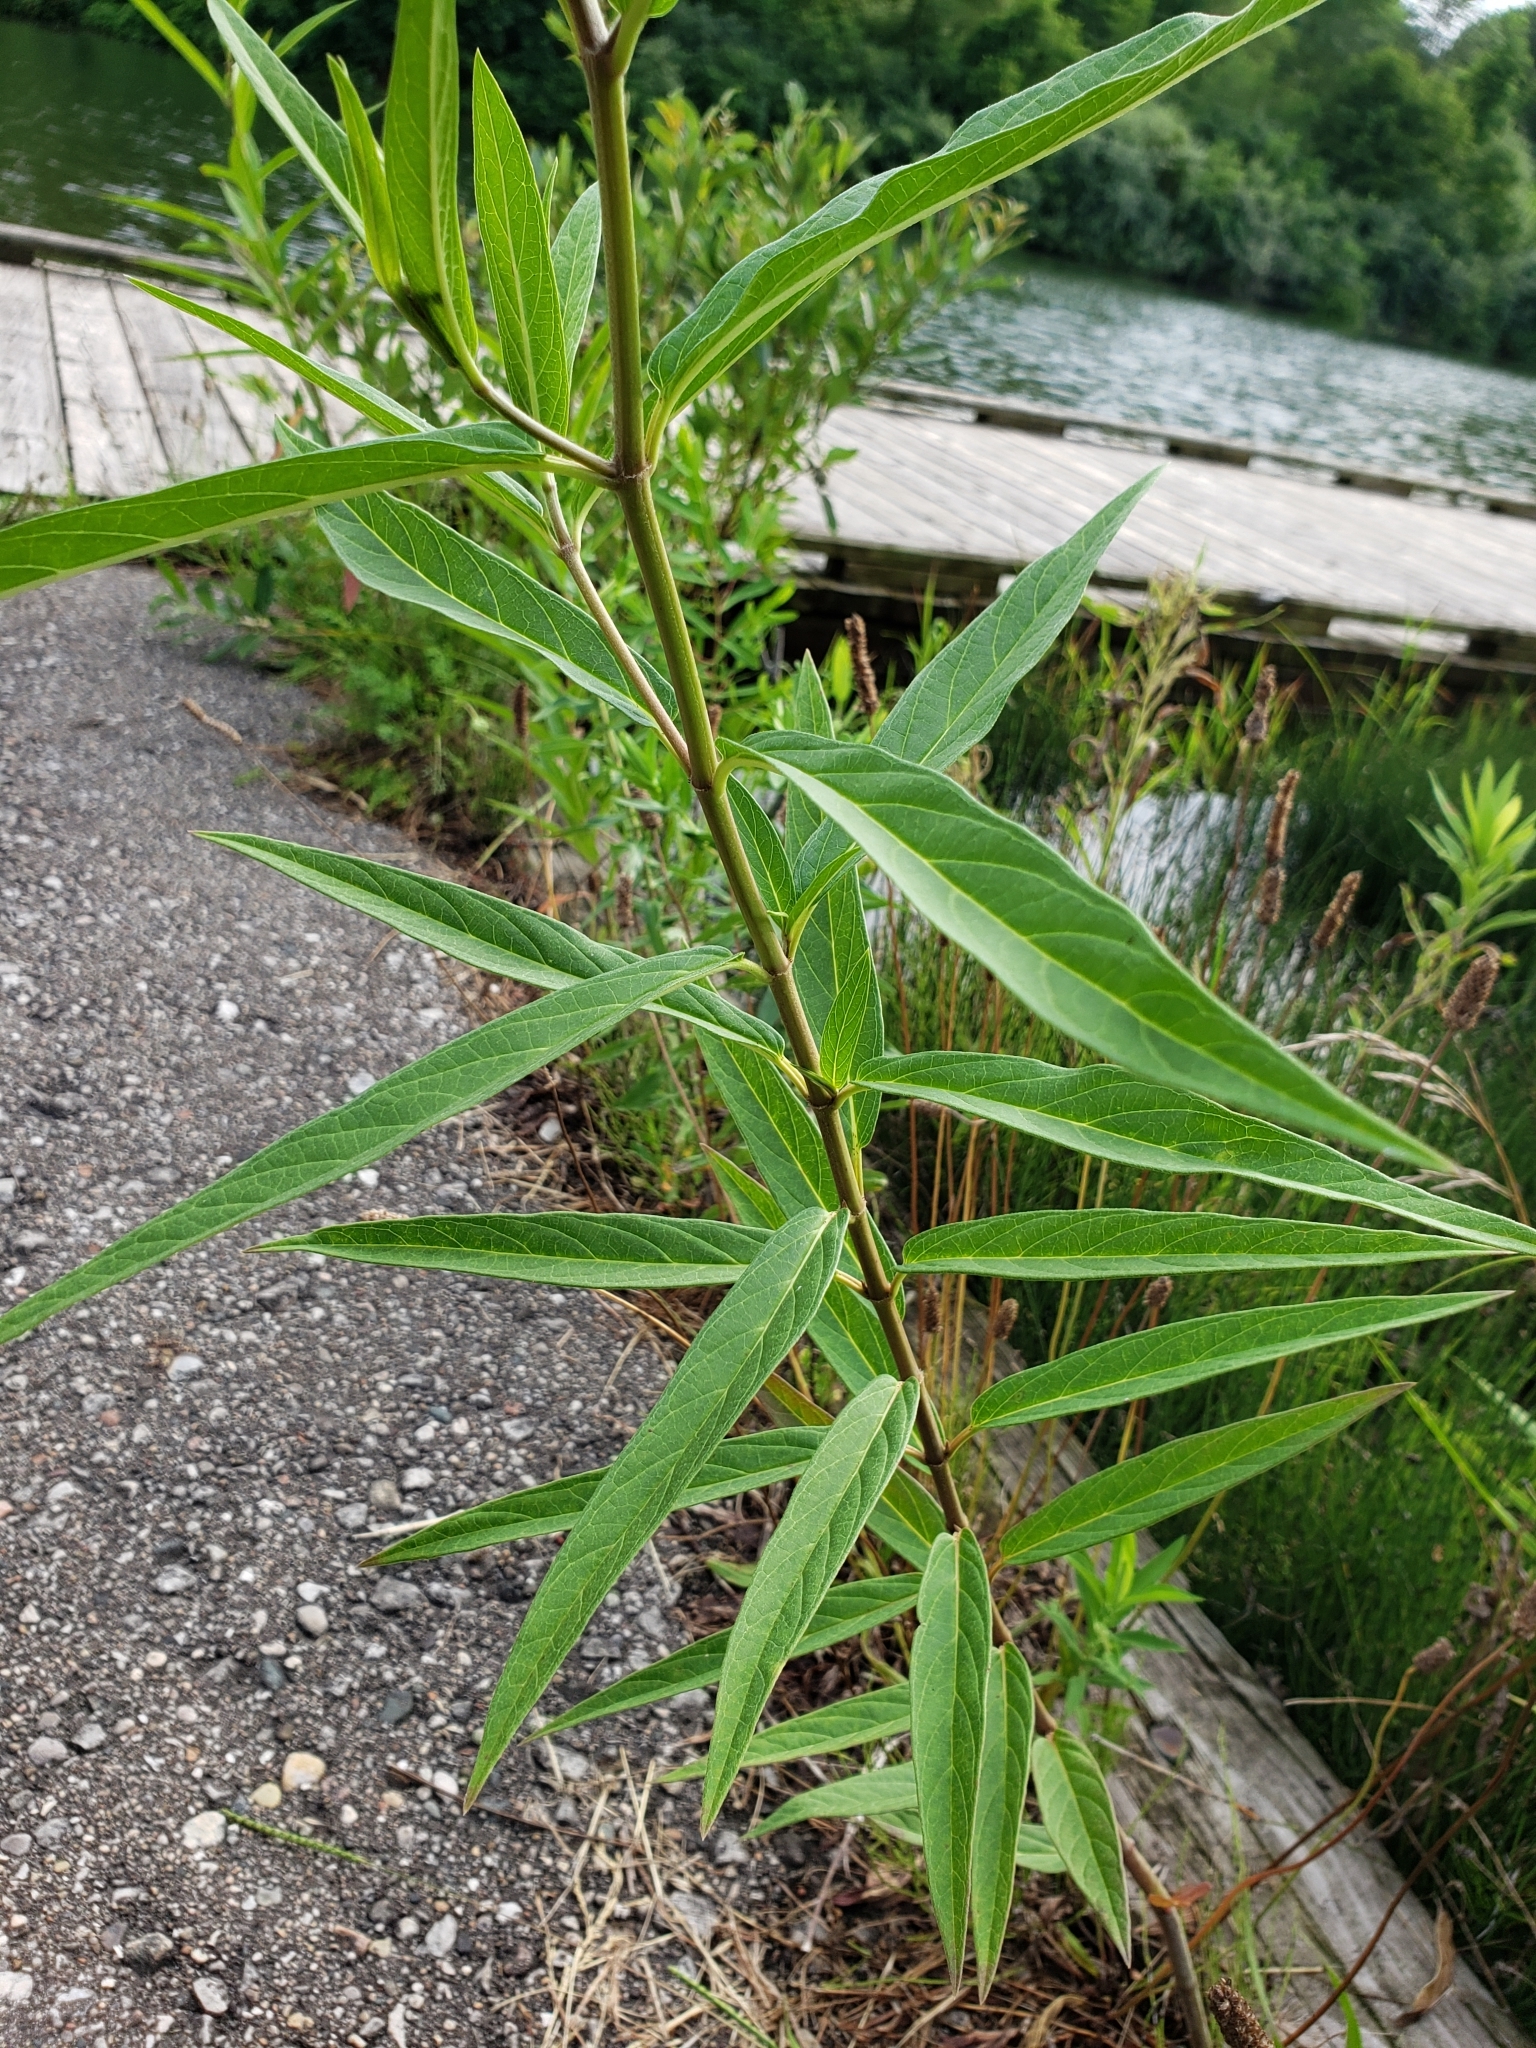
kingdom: Plantae
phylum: Tracheophyta
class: Magnoliopsida
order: Gentianales
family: Apocynaceae
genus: Asclepias
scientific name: Asclepias incarnata
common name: Swamp milkweed
